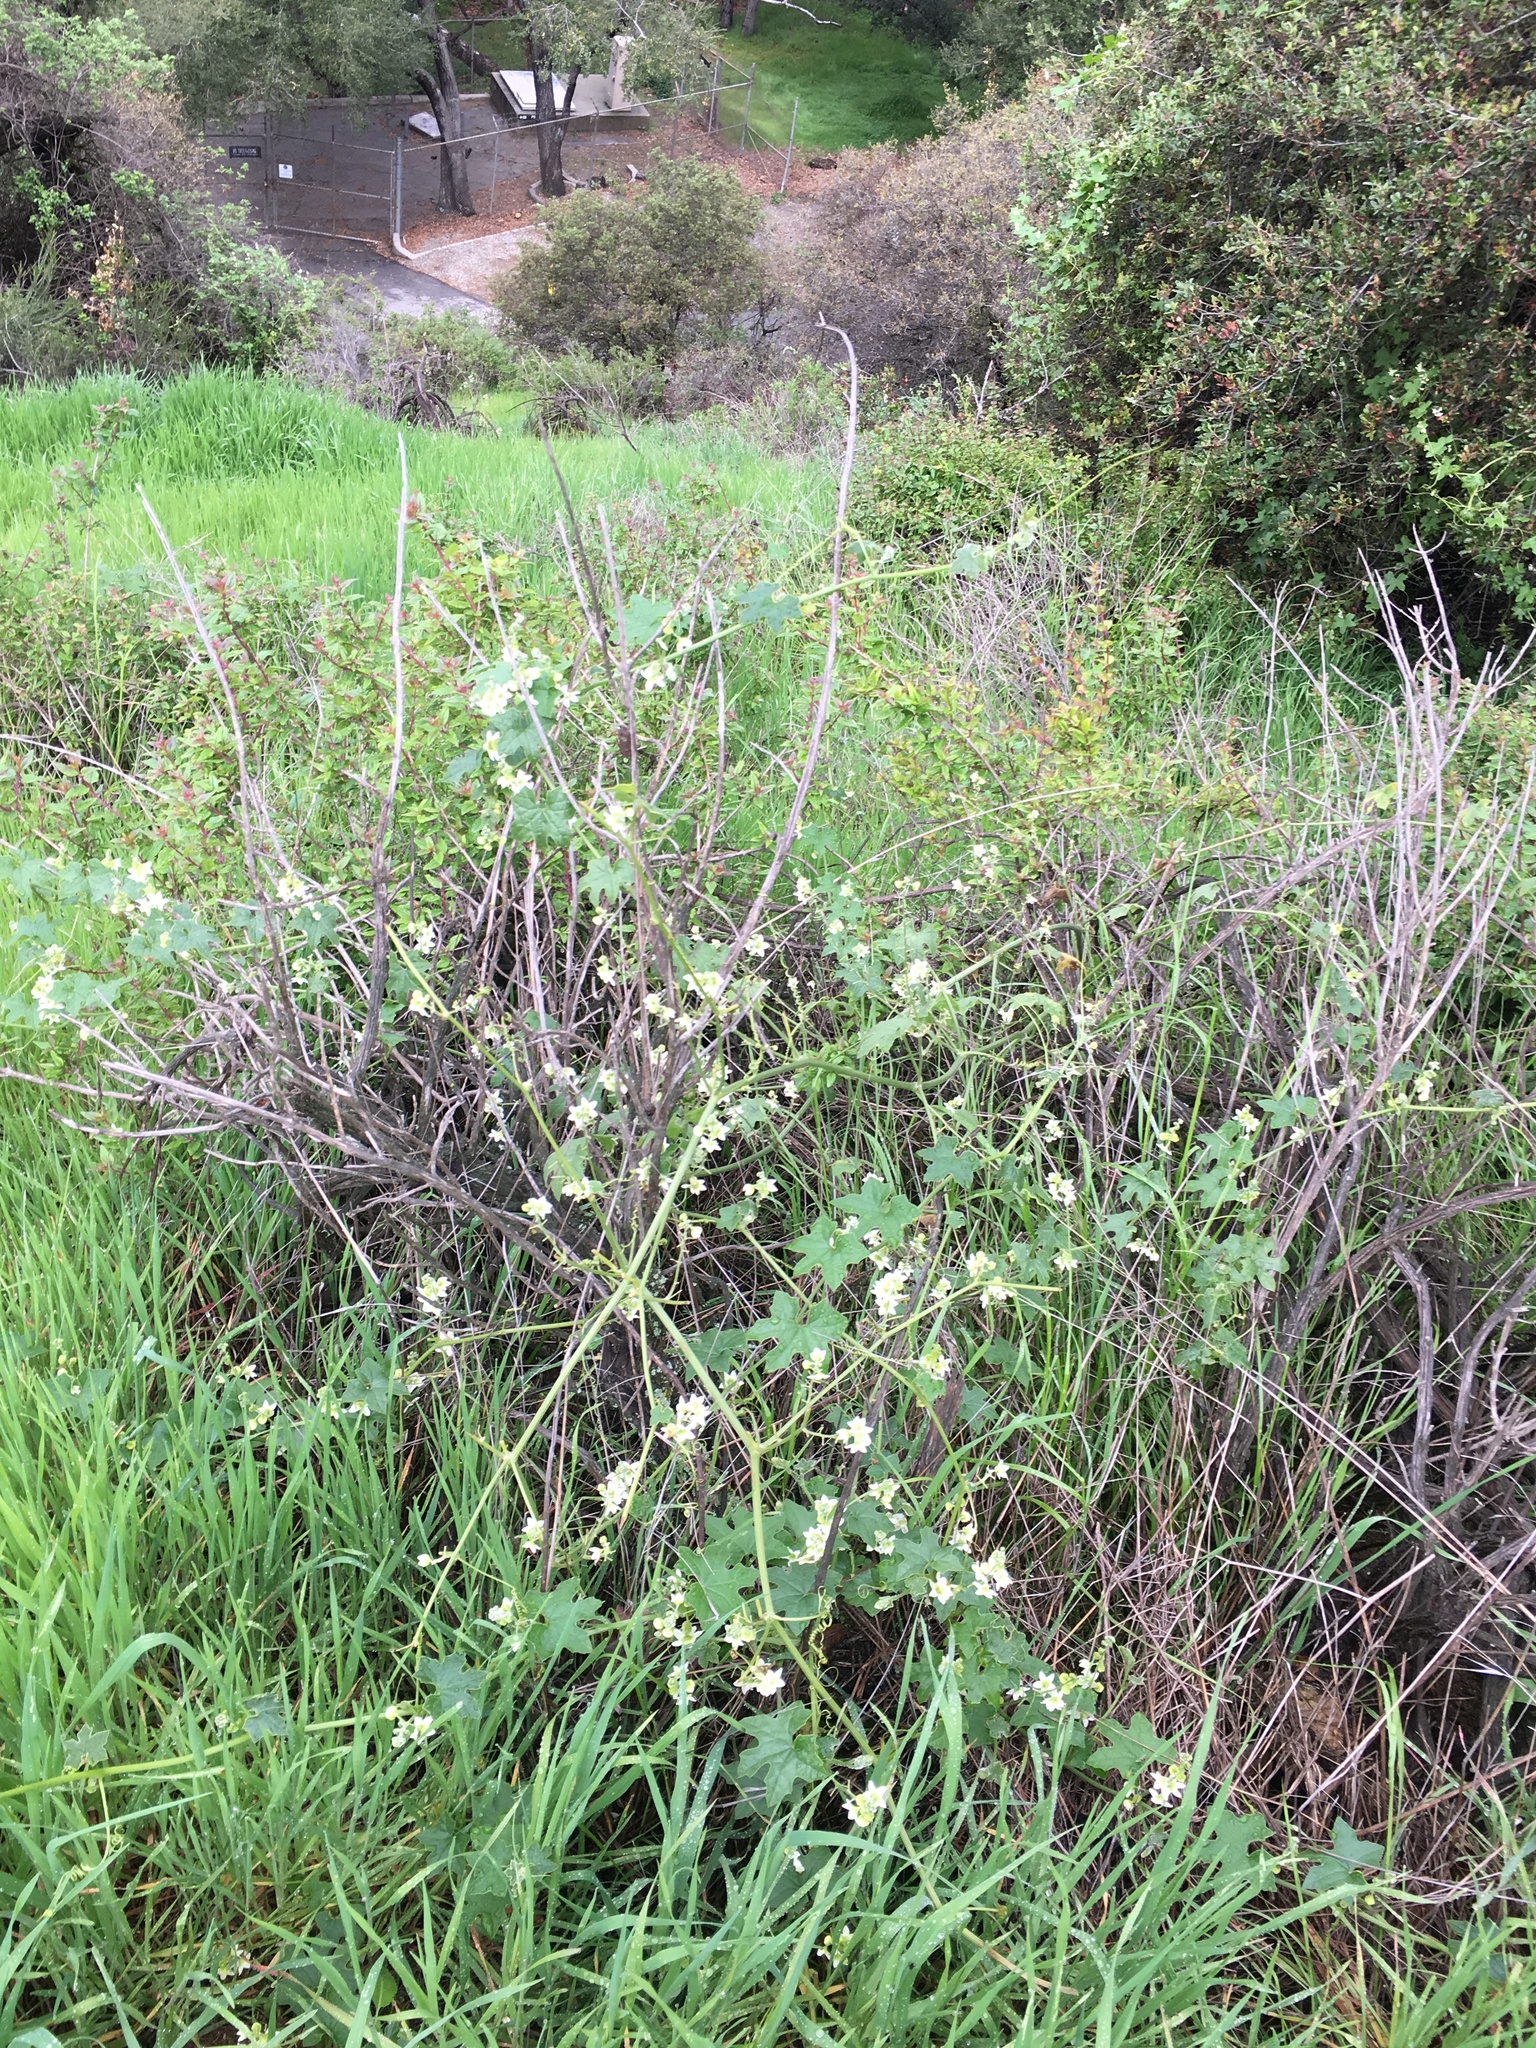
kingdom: Plantae
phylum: Tracheophyta
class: Magnoliopsida
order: Cucurbitales
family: Cucurbitaceae
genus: Marah
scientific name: Marah macrocarpa
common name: Cucamonga manroot
